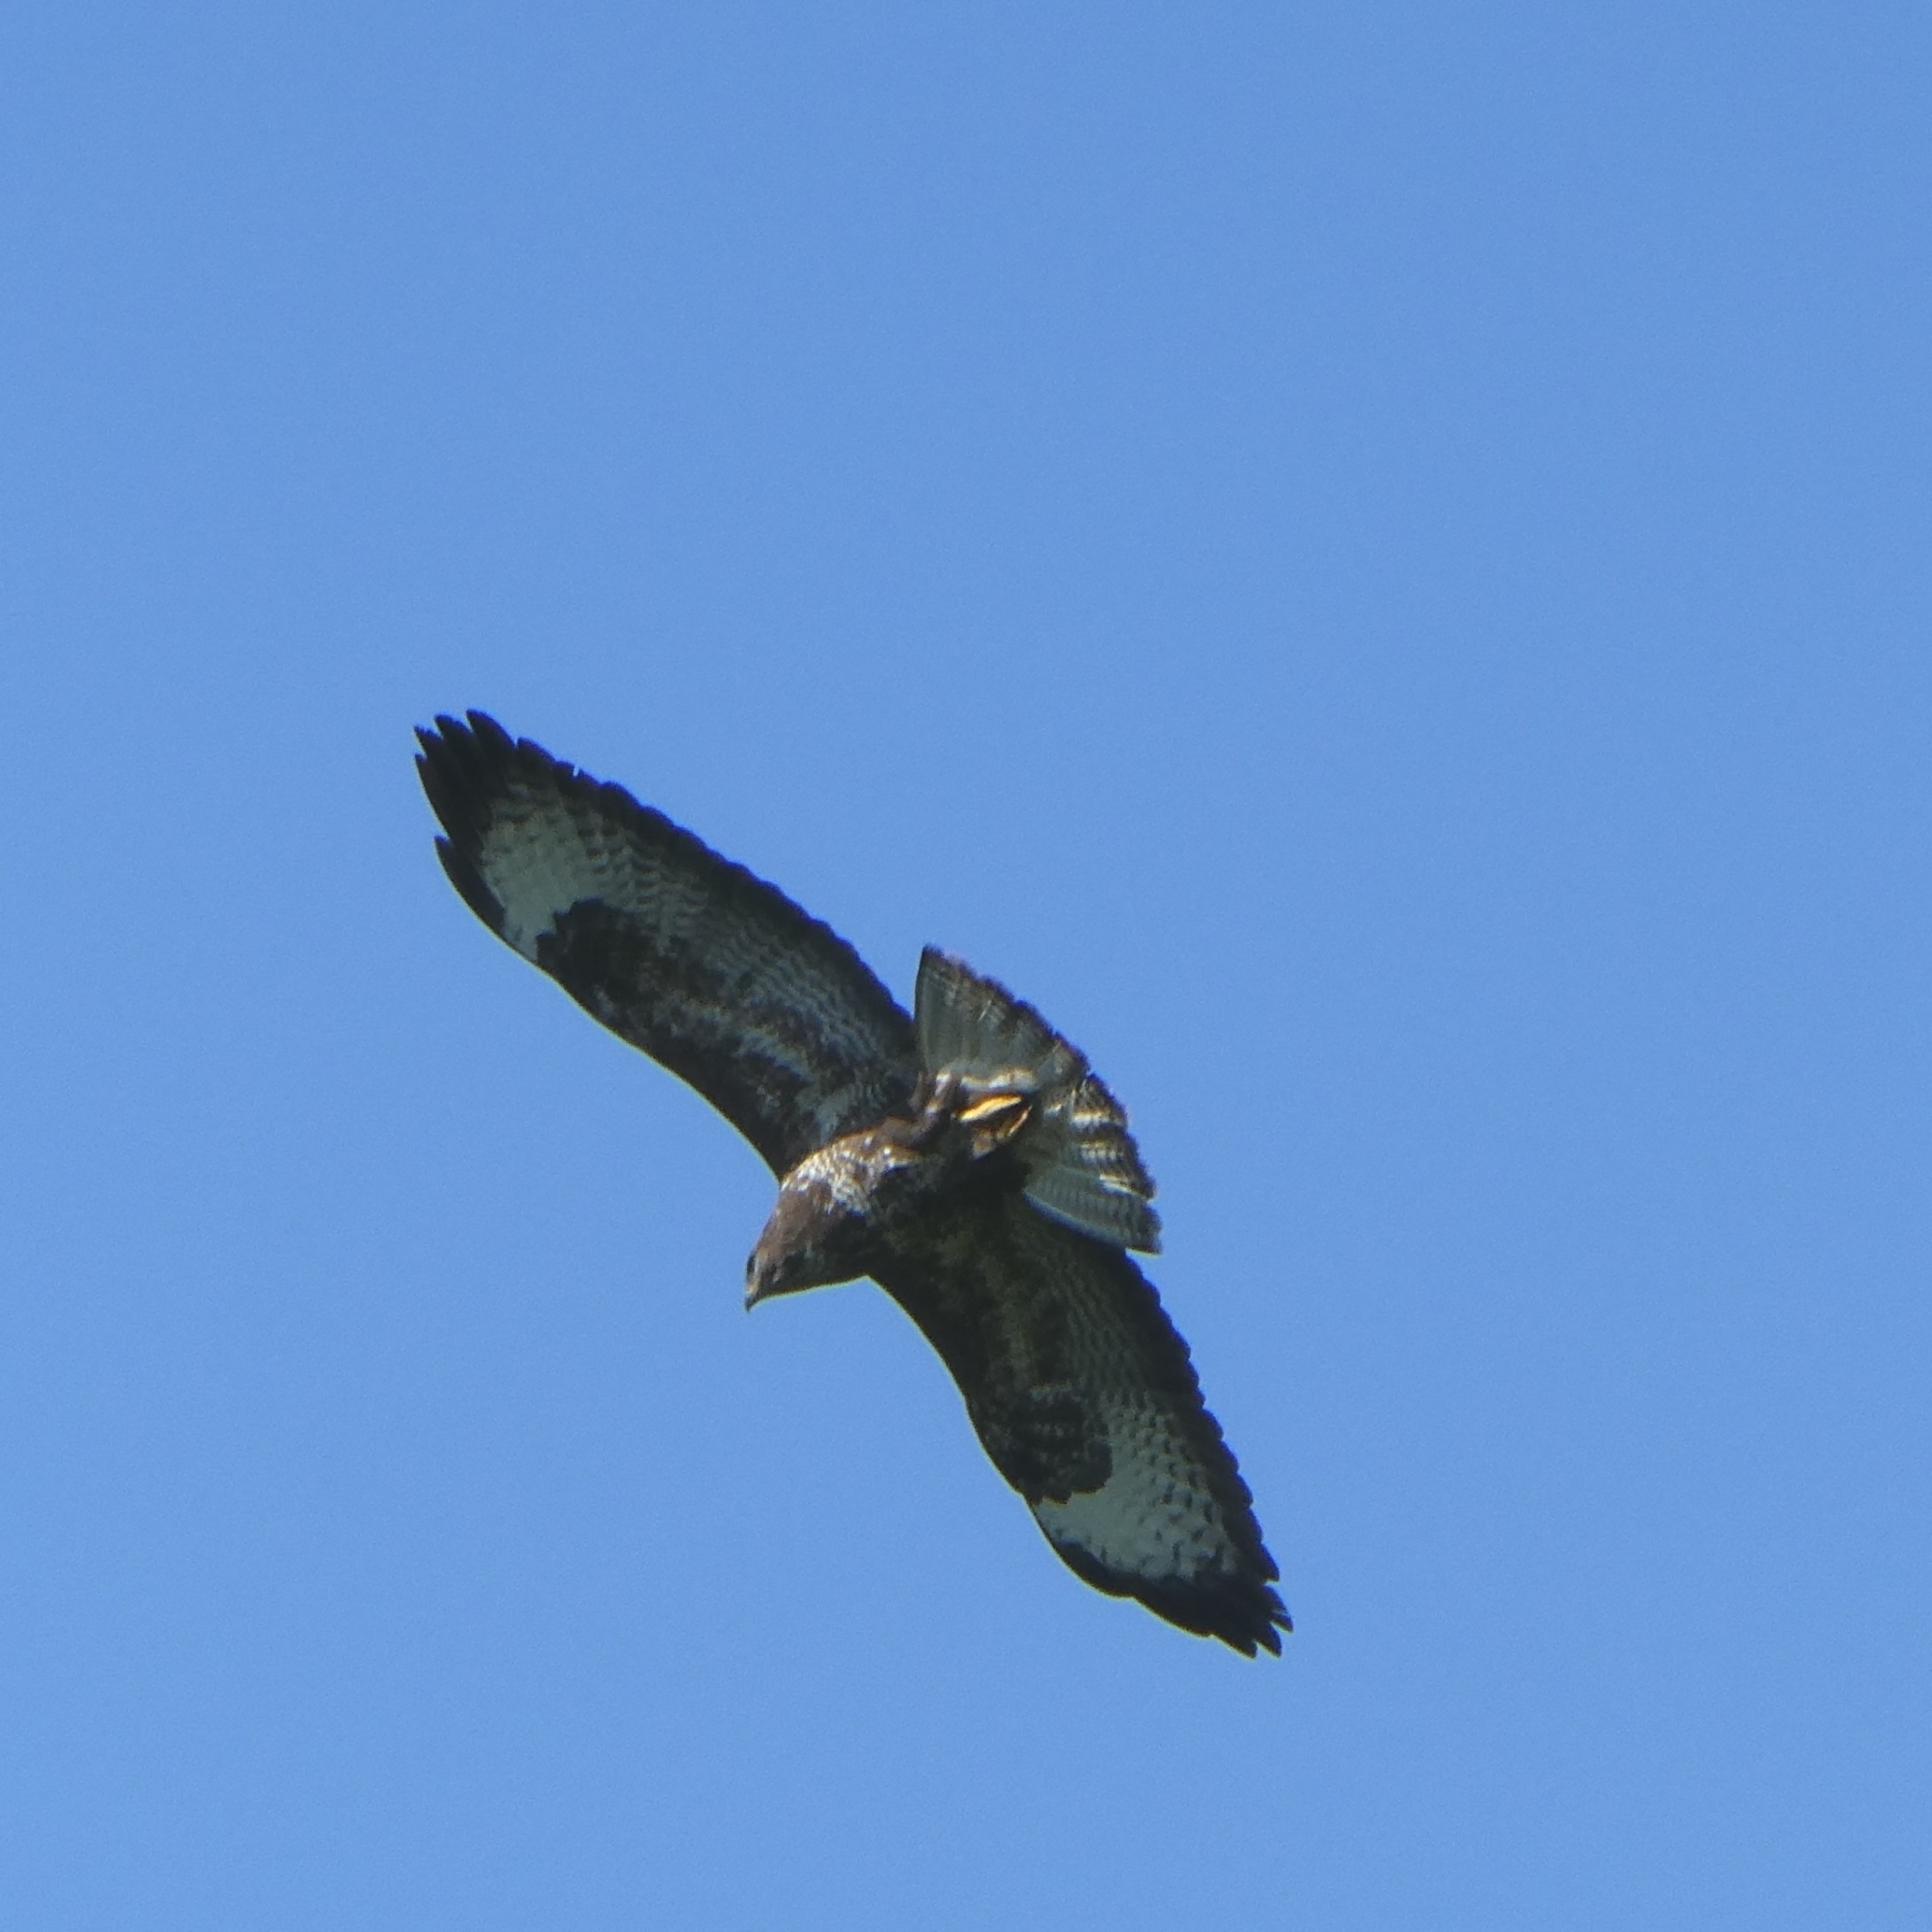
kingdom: Animalia
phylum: Chordata
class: Aves
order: Accipitriformes
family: Accipitridae
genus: Buteo
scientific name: Buteo buteo
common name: Common buzzard
